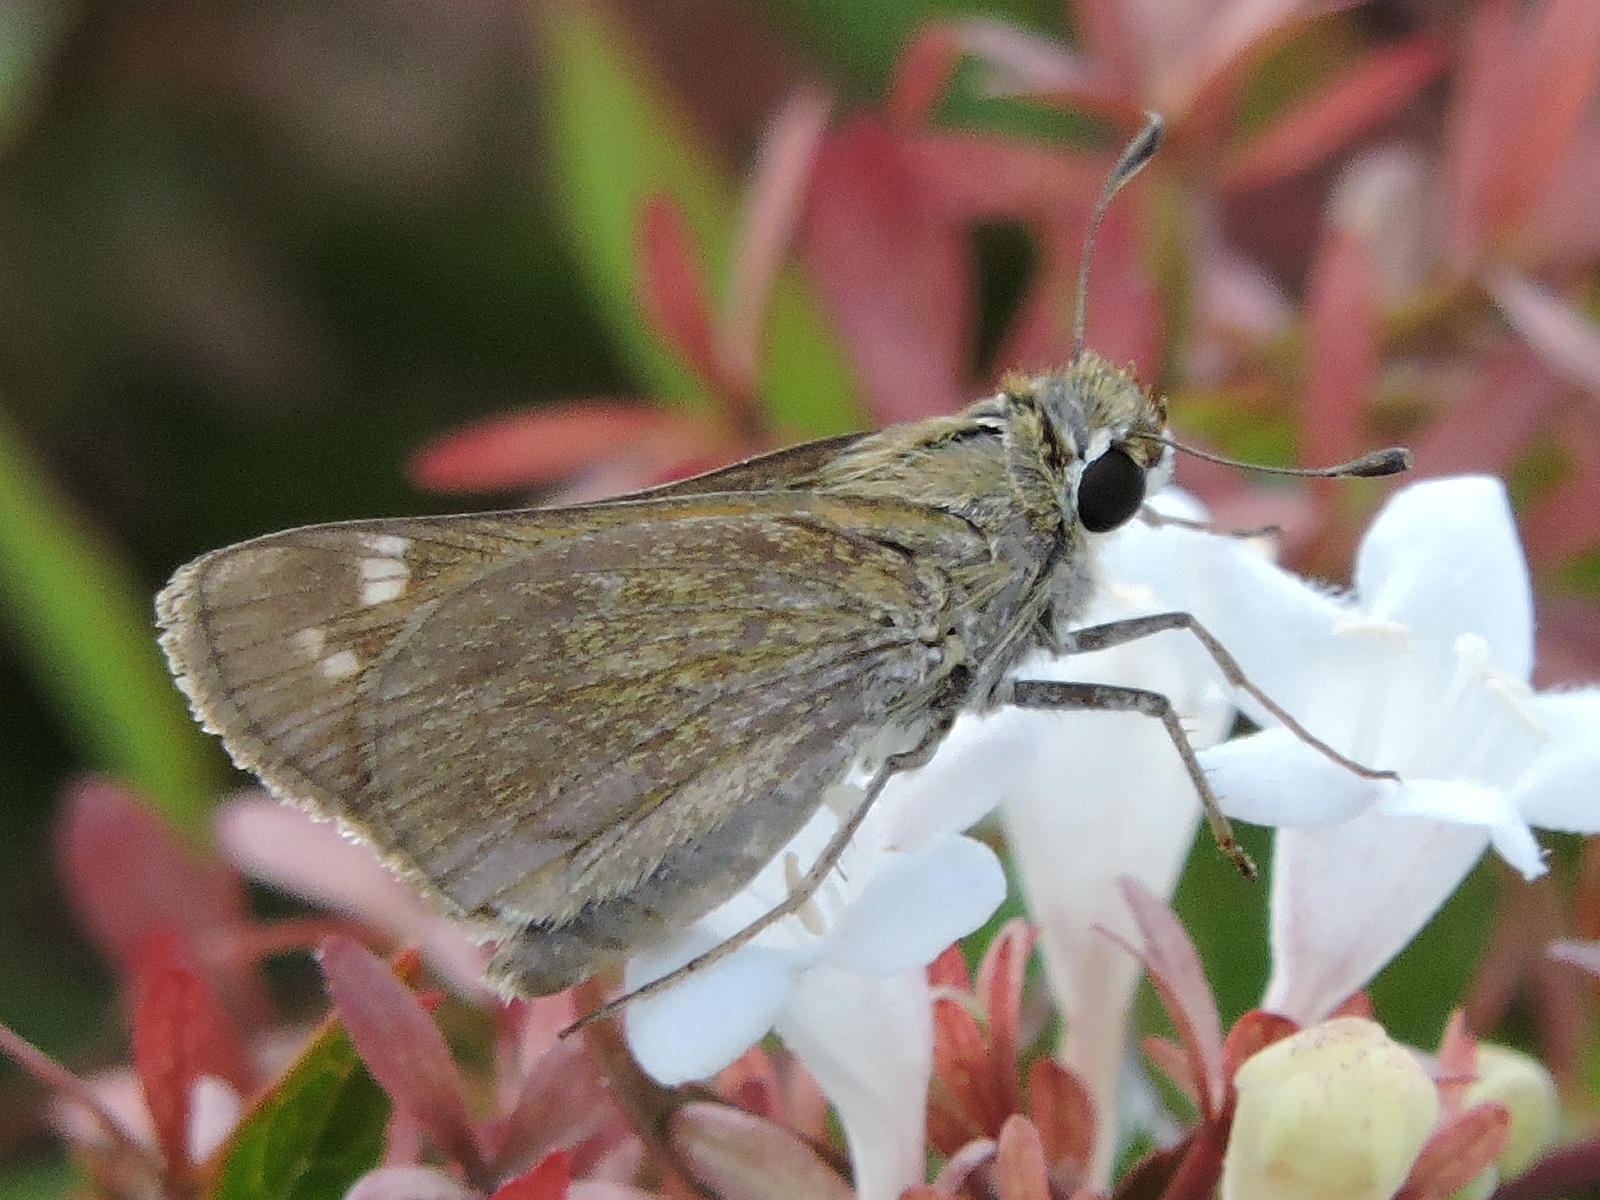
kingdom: Animalia
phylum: Arthropoda
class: Insecta
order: Lepidoptera
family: Hesperiidae
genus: Lerodea
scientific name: Lerodea eufala
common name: Eufala skipper
